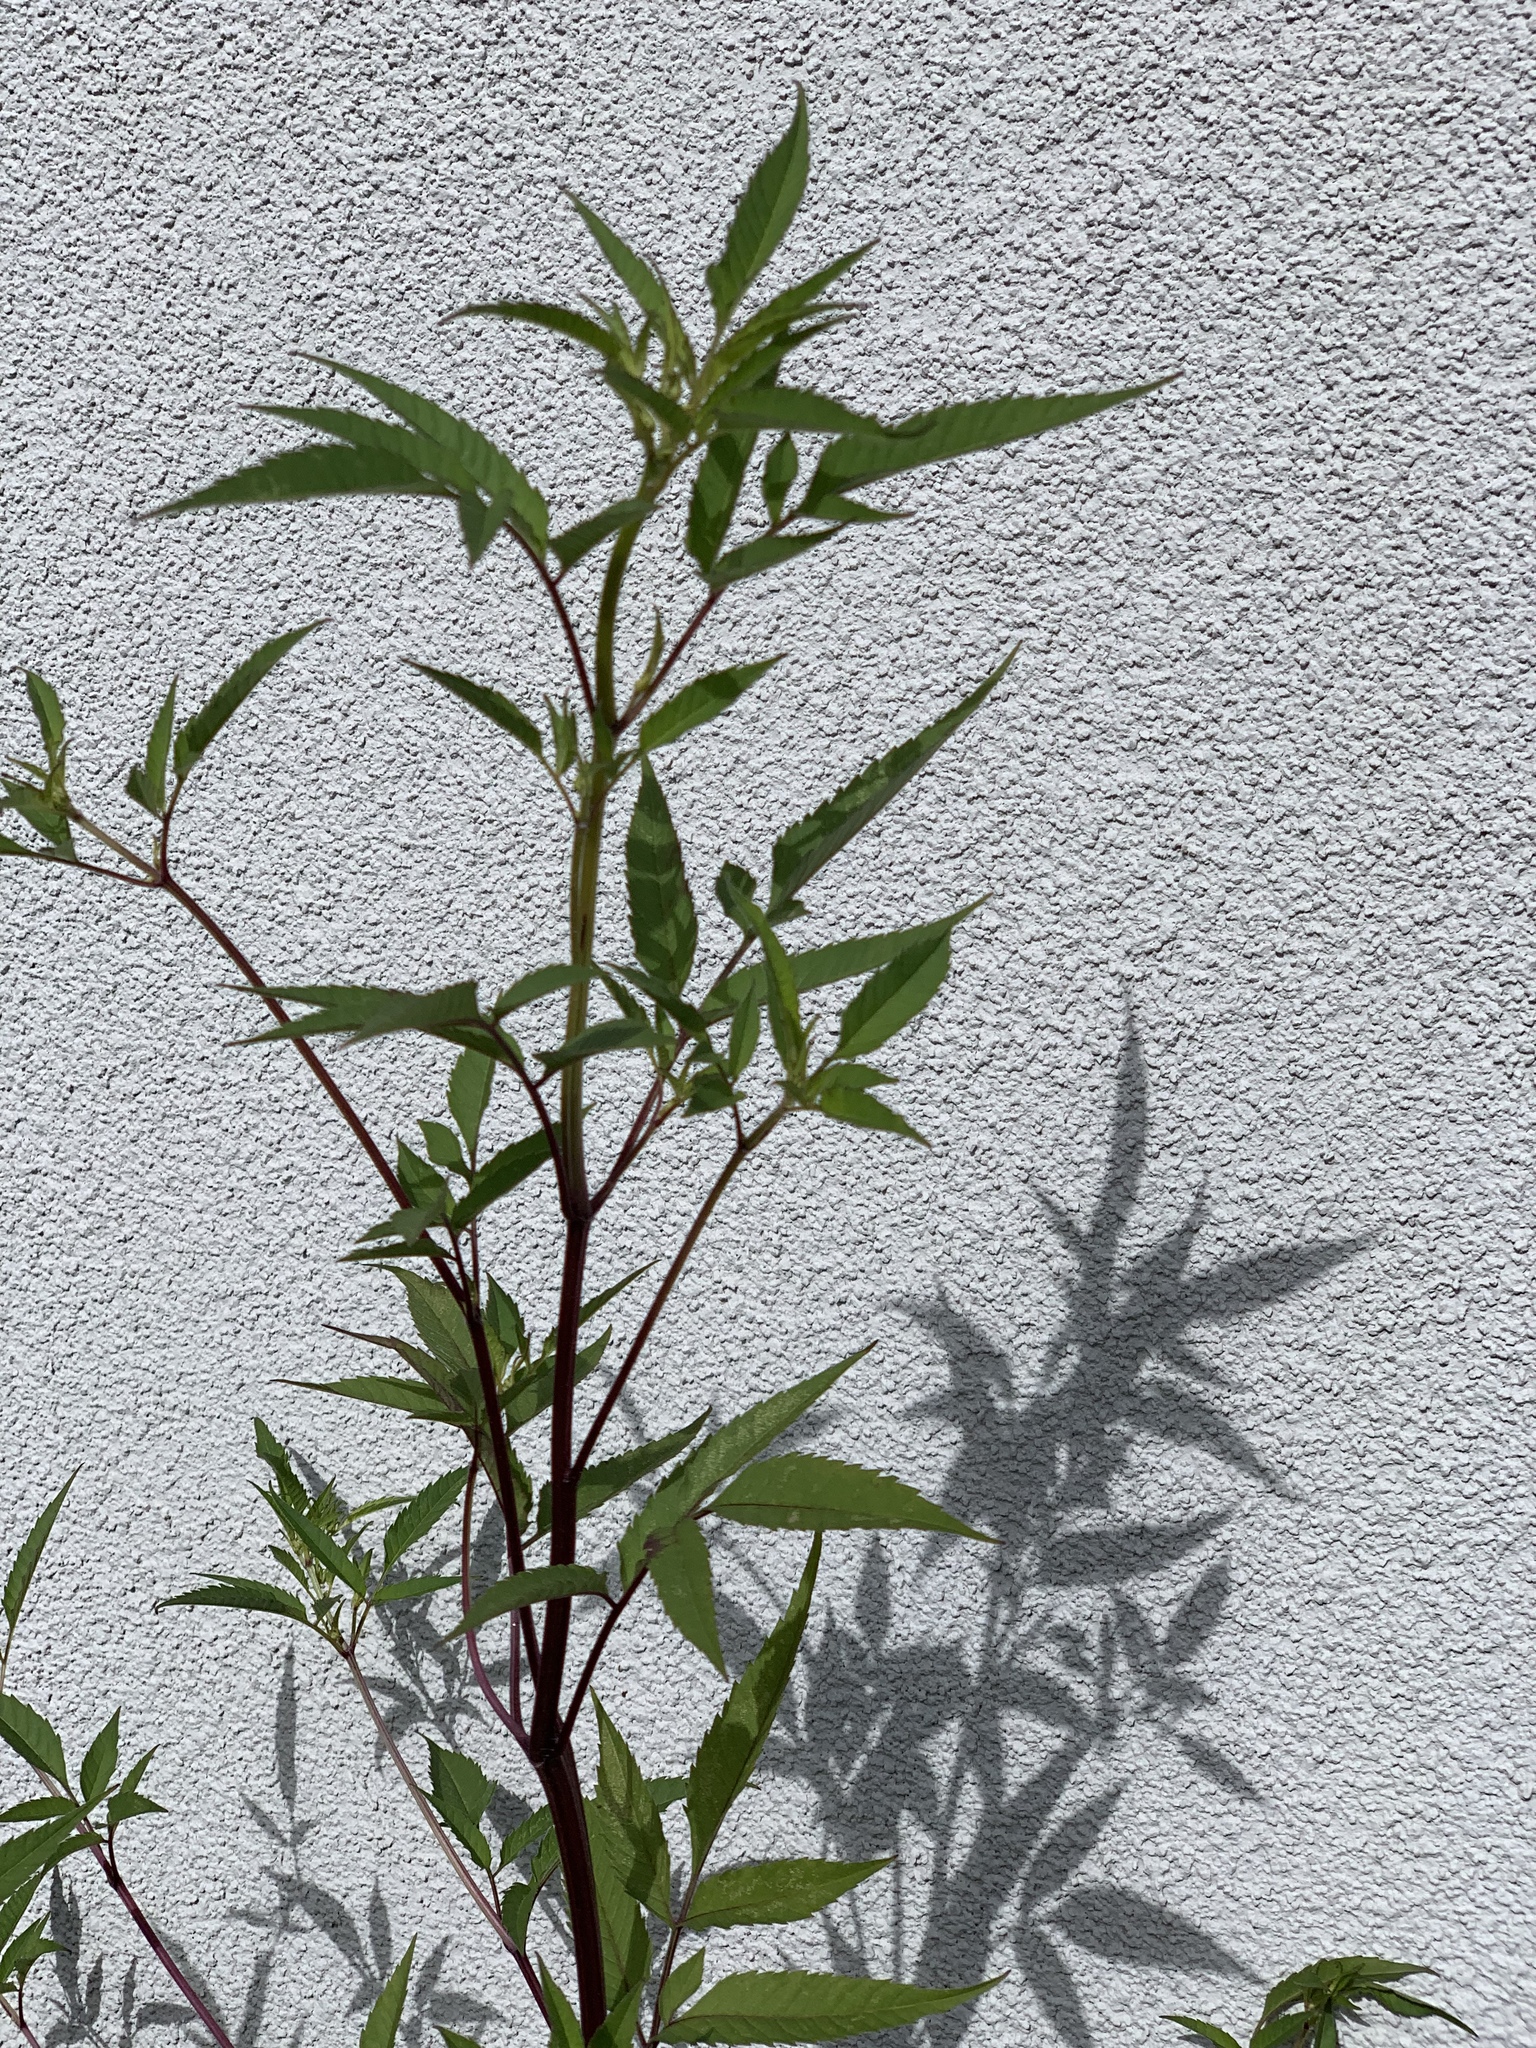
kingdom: Plantae
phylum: Tracheophyta
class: Magnoliopsida
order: Asterales
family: Asteraceae
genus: Bidens
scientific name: Bidens frondosa
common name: Beggarticks
